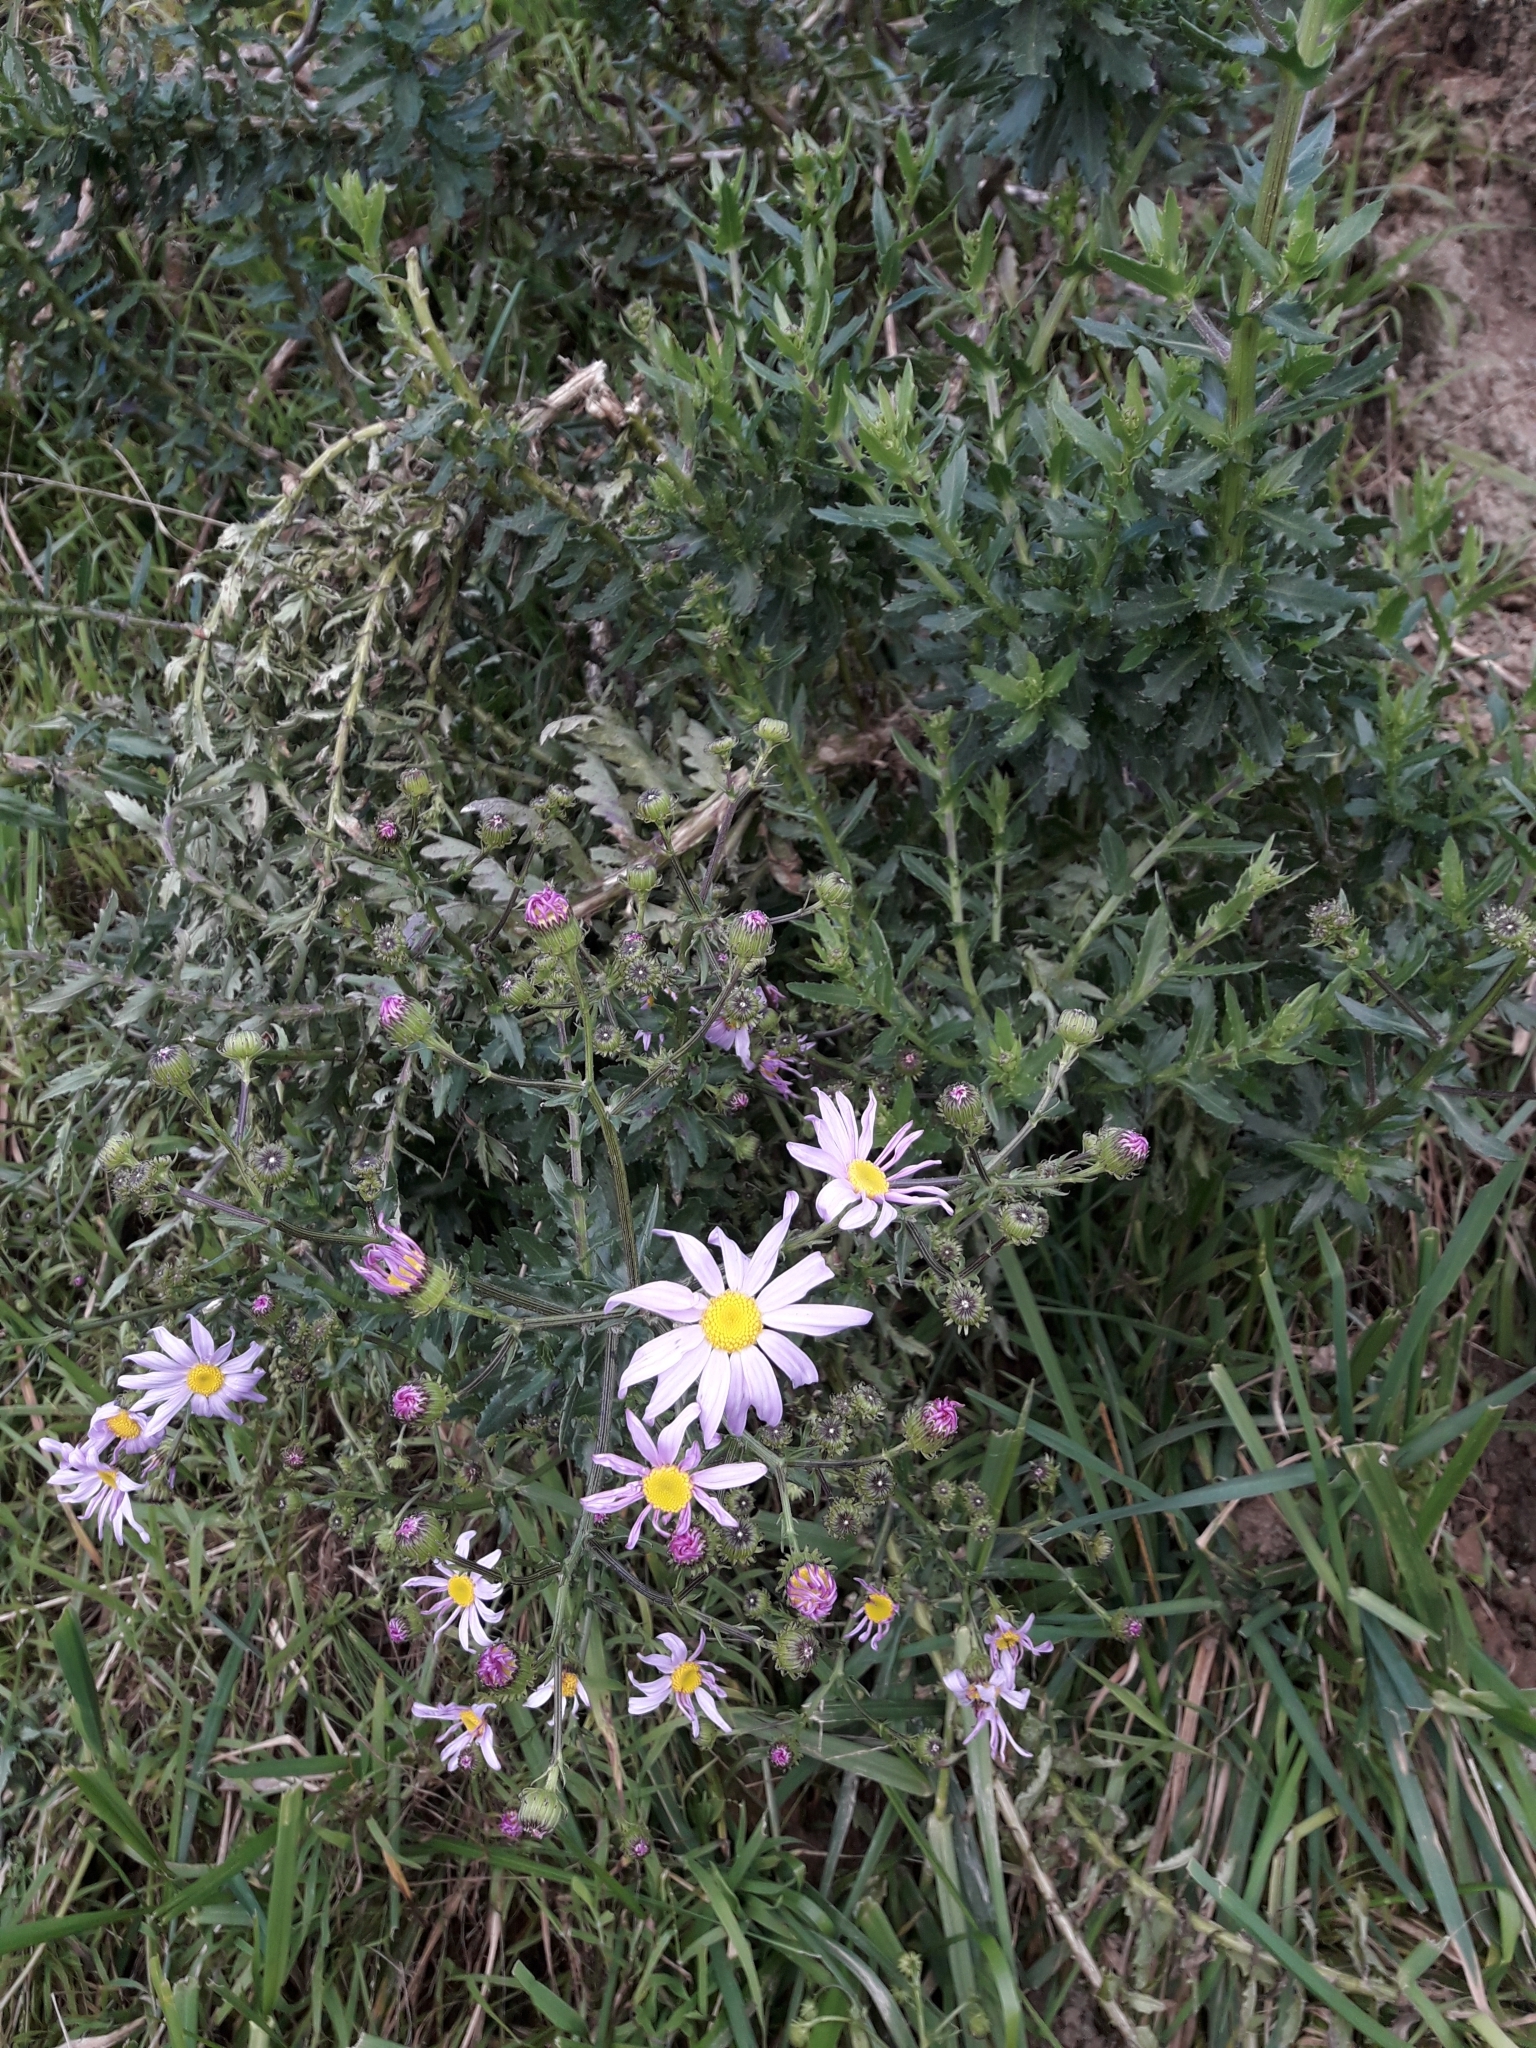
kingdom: Plantae
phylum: Tracheophyta
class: Magnoliopsida
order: Asterales
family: Asteraceae
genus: Senecio
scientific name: Senecio glastifolius
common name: Woad-leaved ragwort
